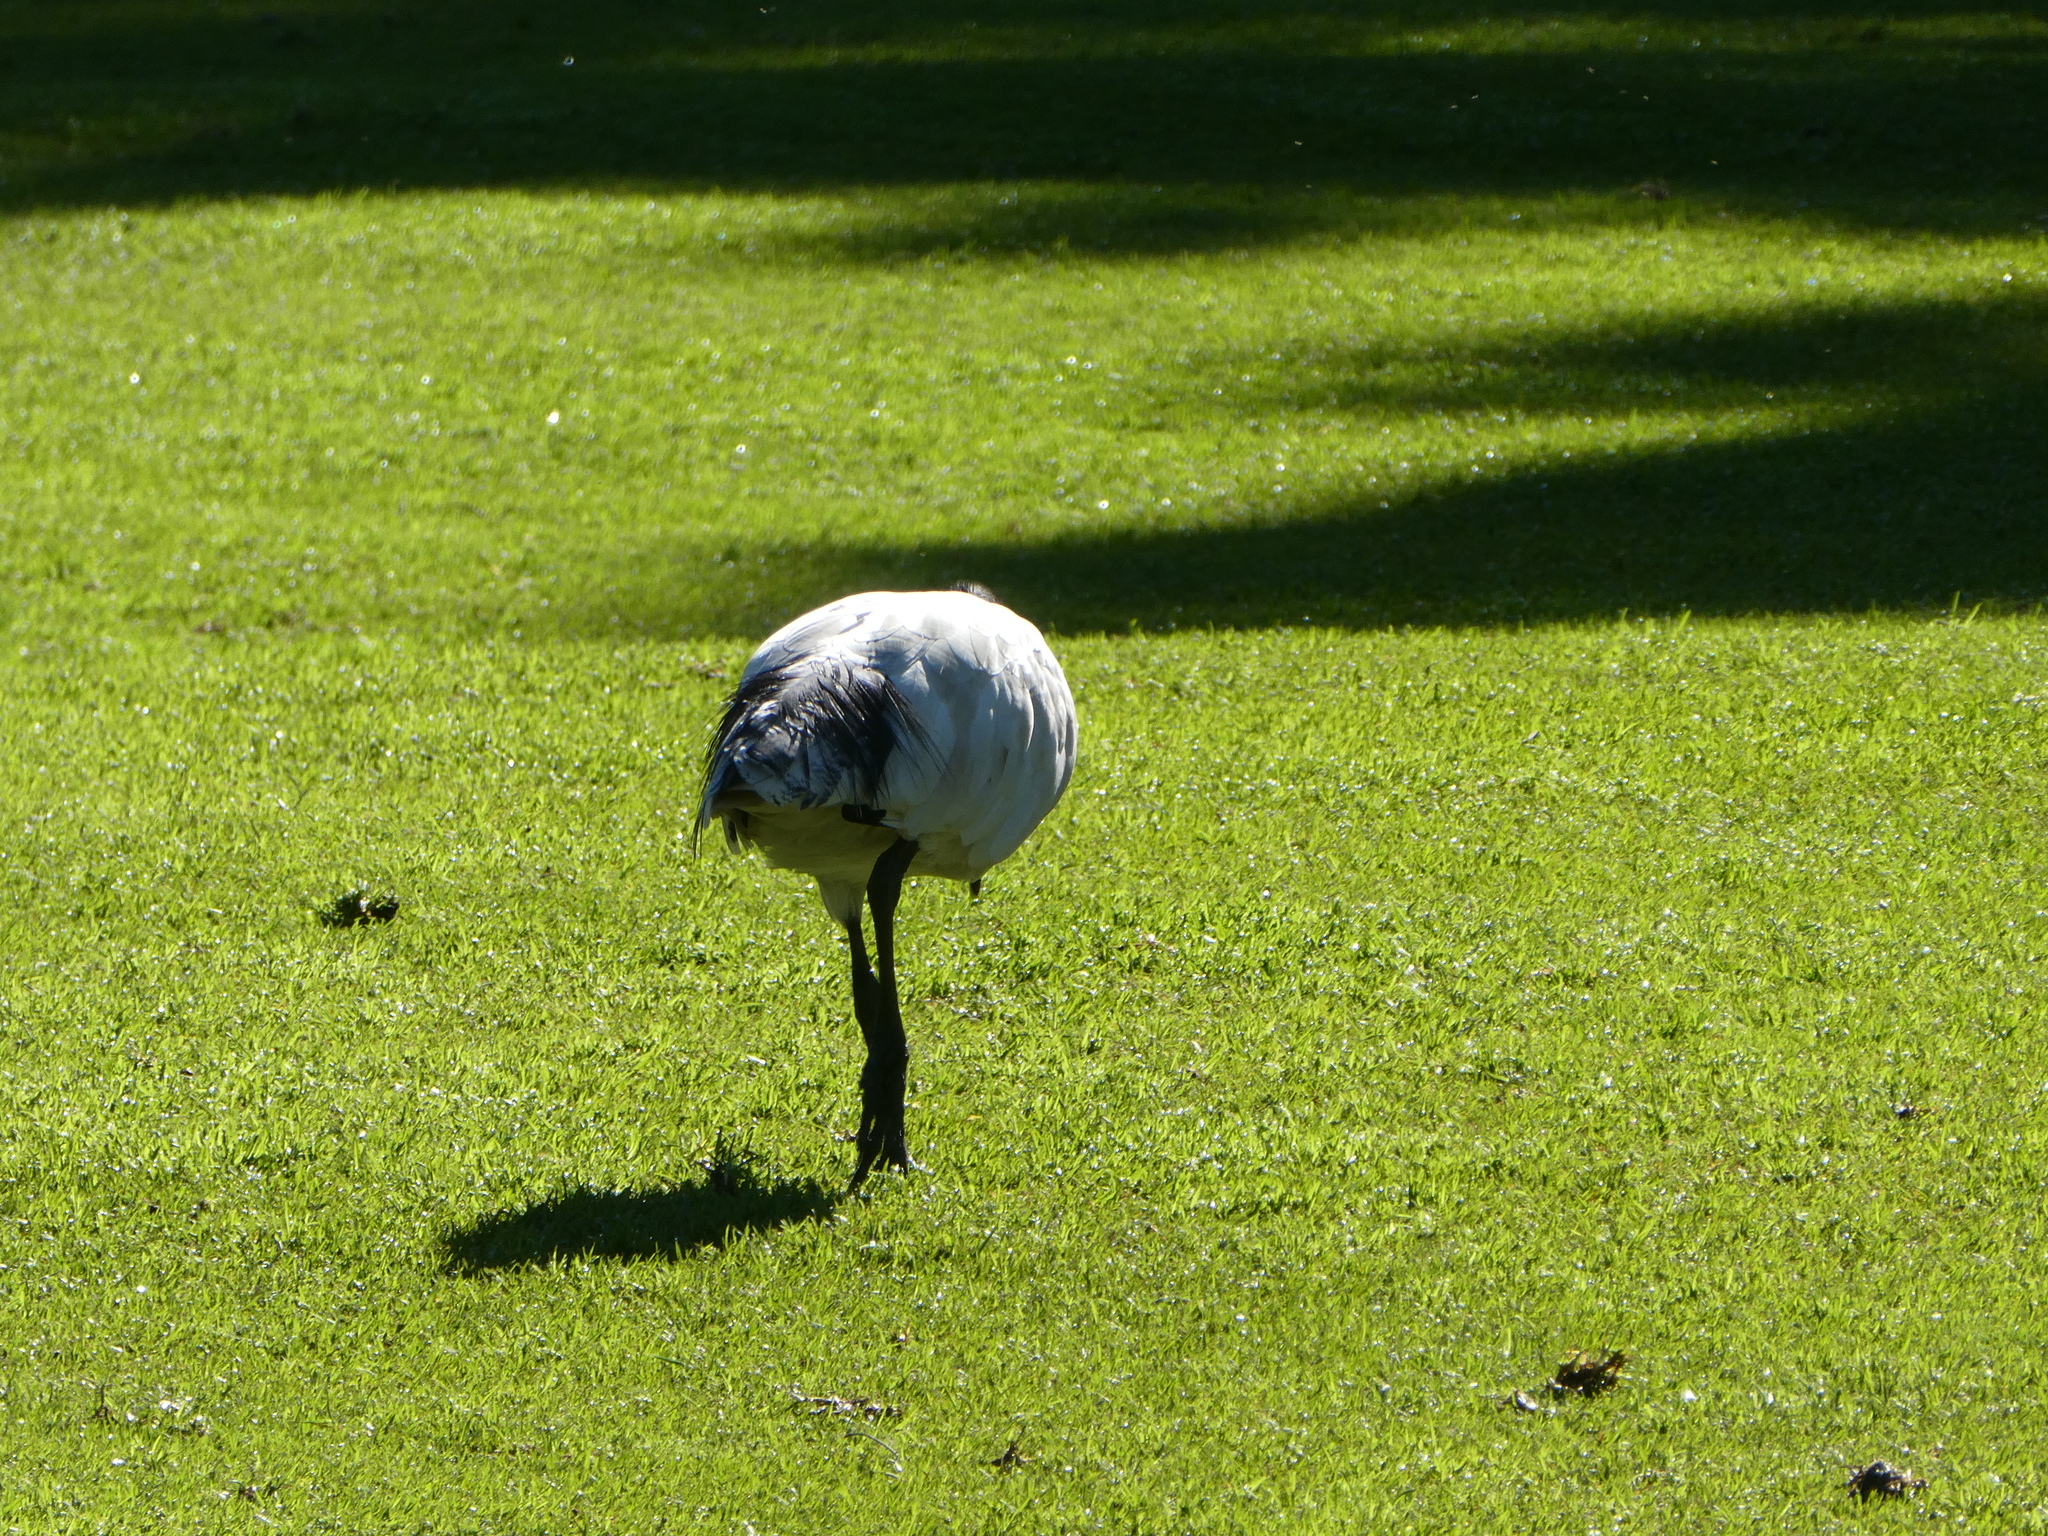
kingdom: Animalia
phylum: Chordata
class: Aves
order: Pelecaniformes
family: Threskiornithidae
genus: Threskiornis
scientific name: Threskiornis molucca
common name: Australian white ibis
